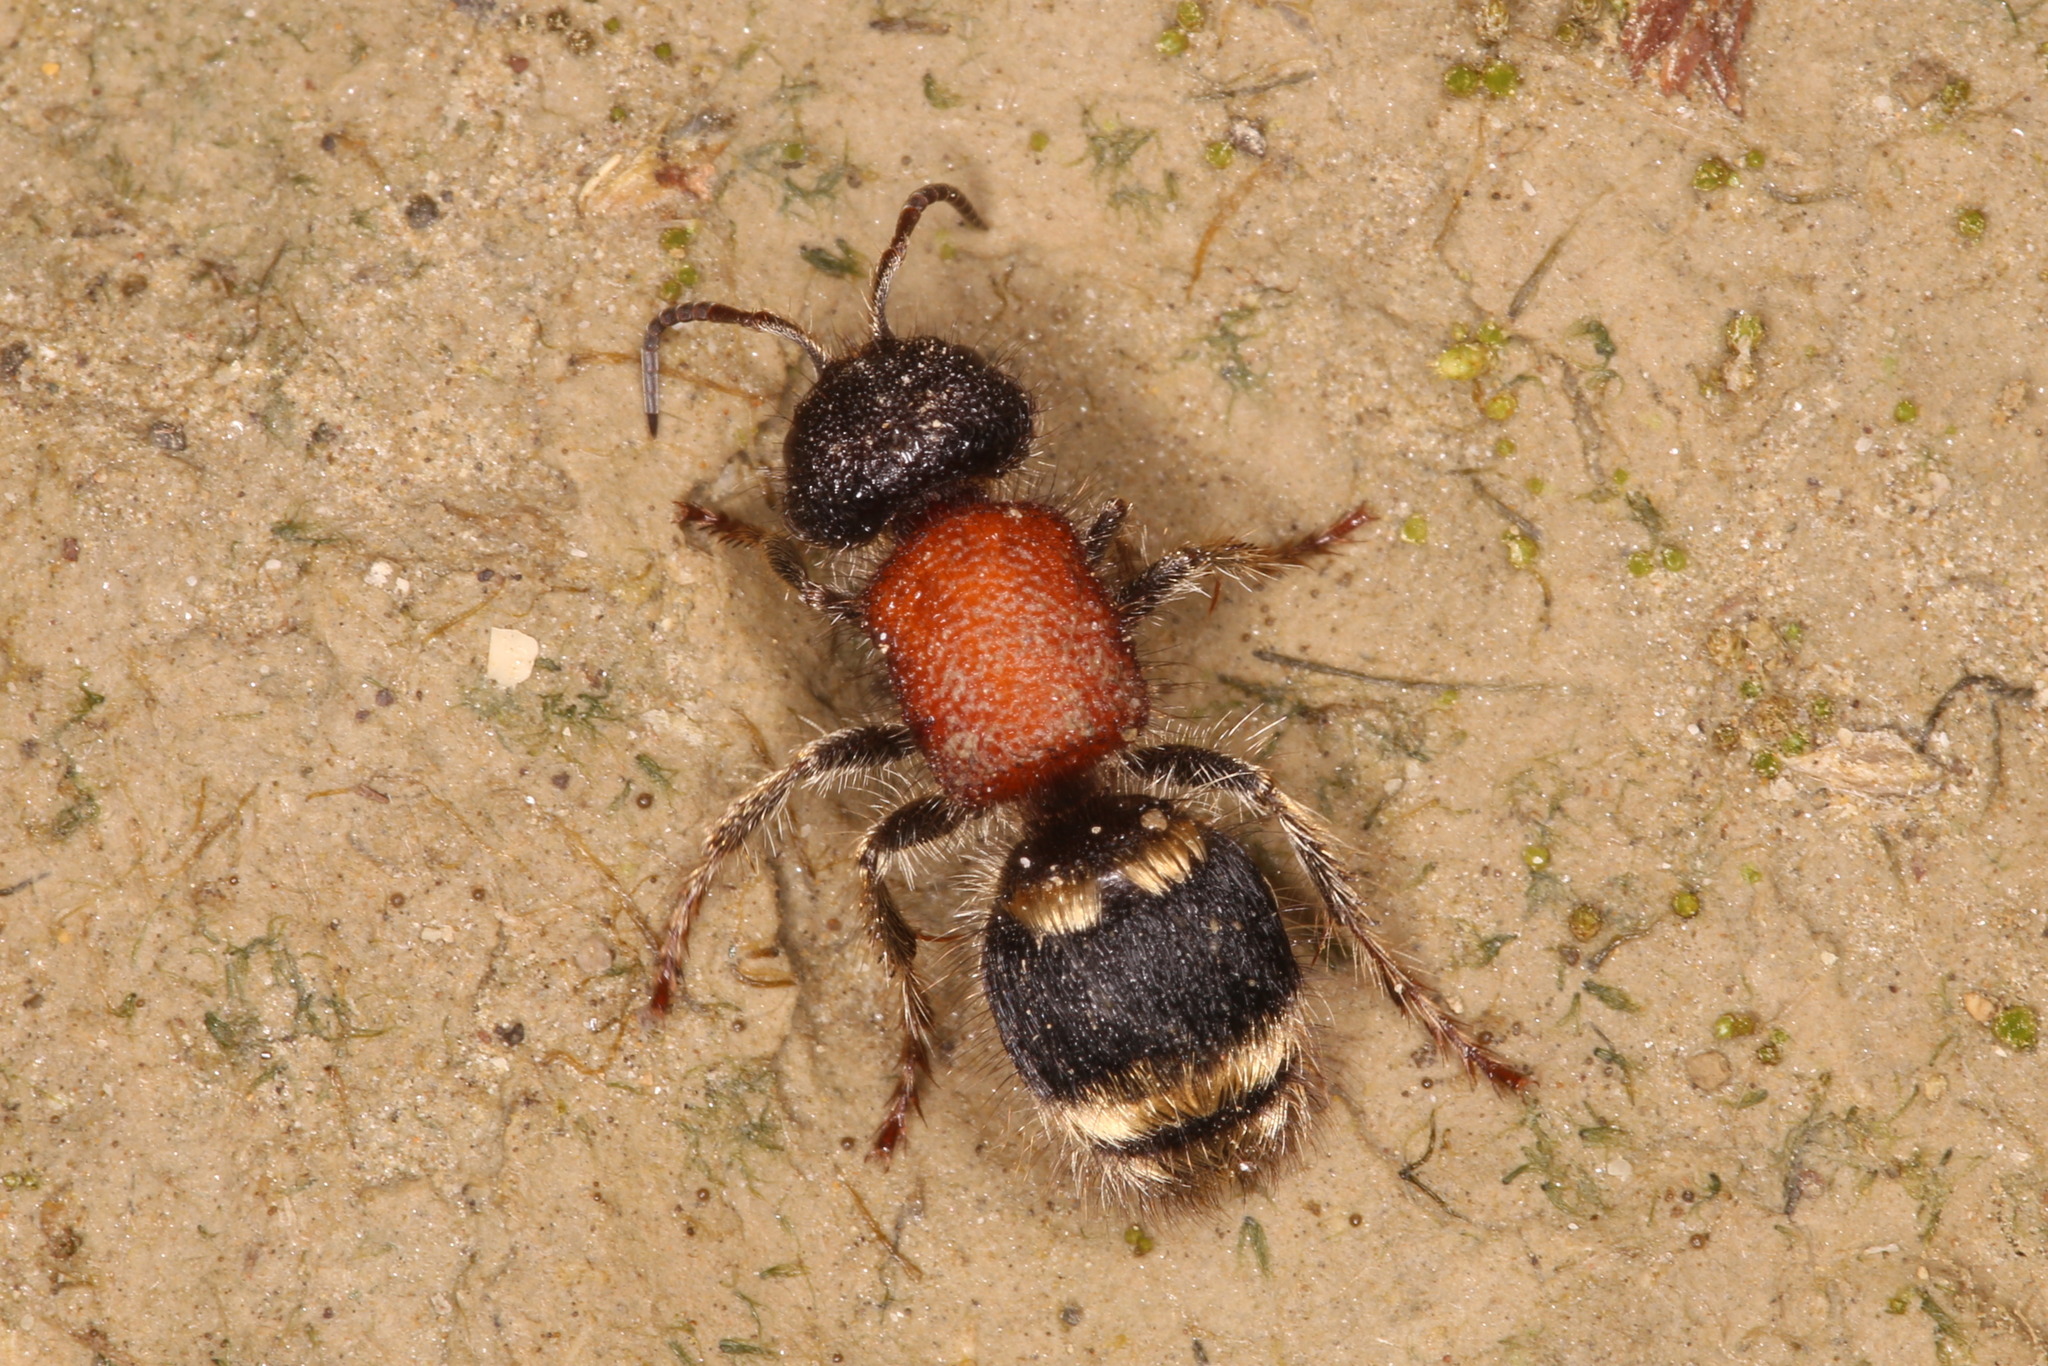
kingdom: Animalia
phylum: Arthropoda
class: Insecta
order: Hymenoptera
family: Mutillidae
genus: Tropidotilla
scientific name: Tropidotilla litoralis
